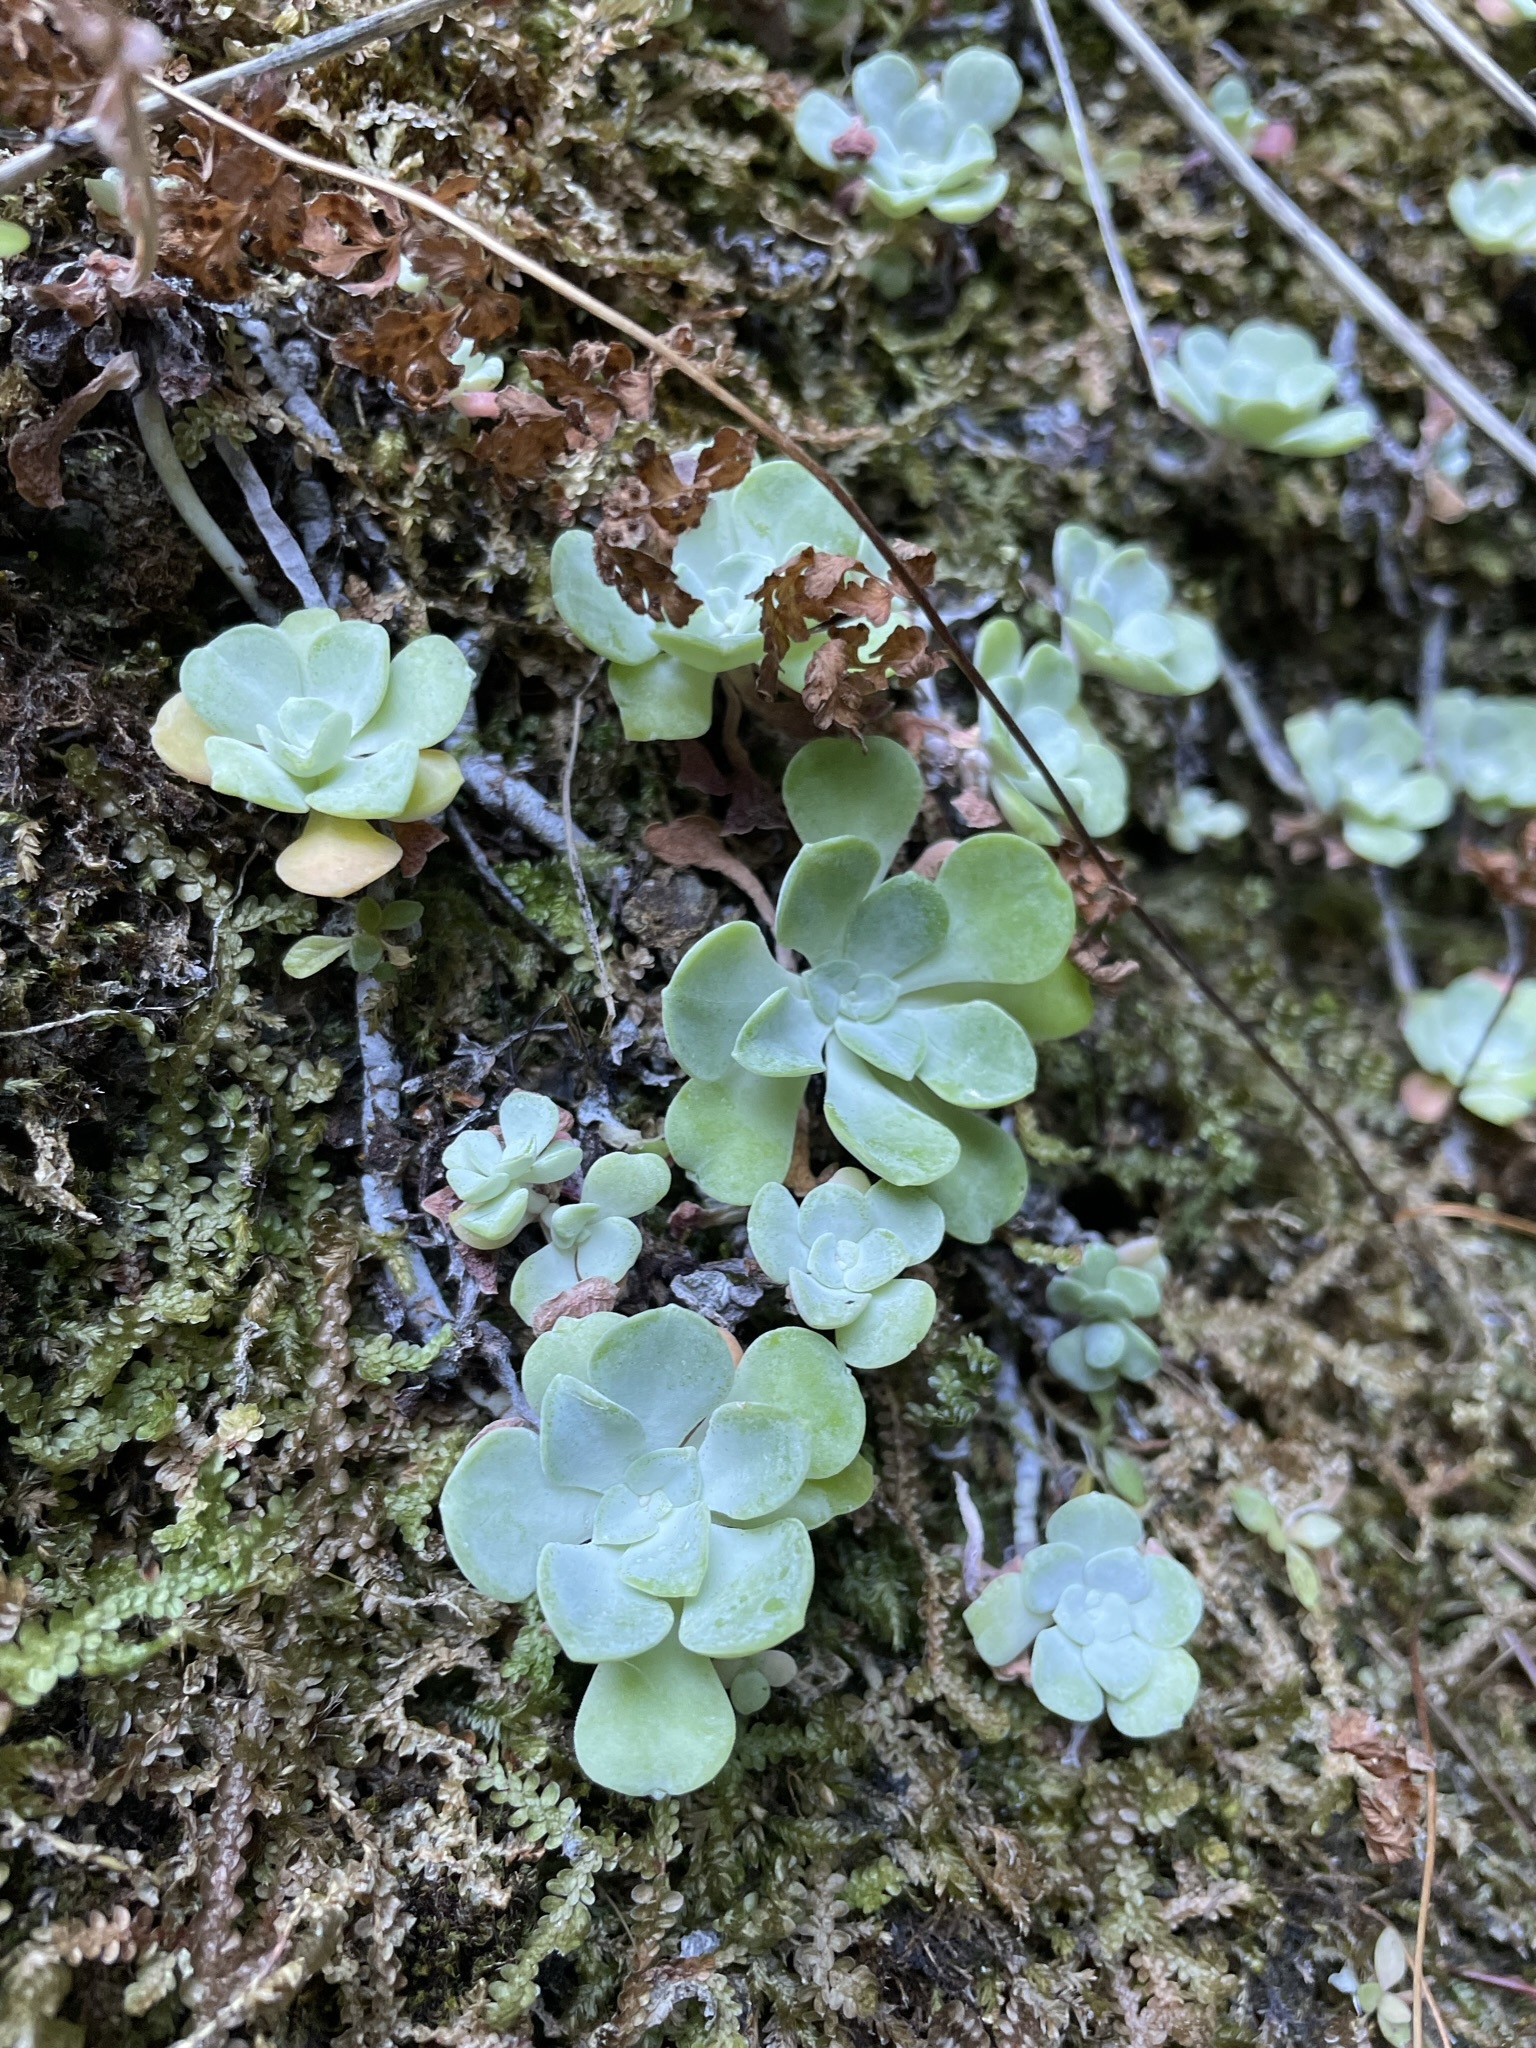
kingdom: Plantae
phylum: Tracheophyta
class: Magnoliopsida
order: Saxifragales
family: Crassulaceae
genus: Sedum
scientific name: Sedum spathulifolium
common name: Colorado stonecrop
